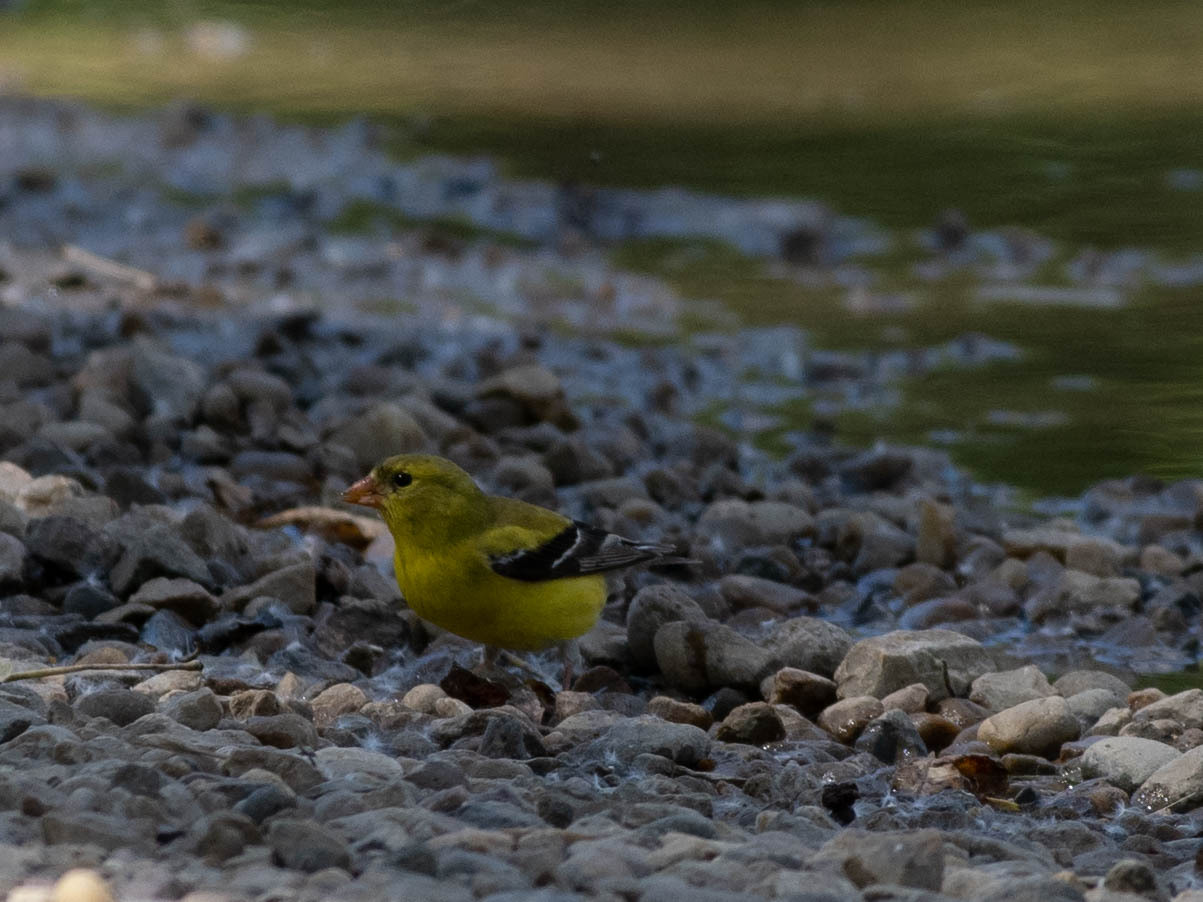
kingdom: Animalia
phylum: Chordata
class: Aves
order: Passeriformes
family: Fringillidae
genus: Spinus
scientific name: Spinus tristis
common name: American goldfinch
